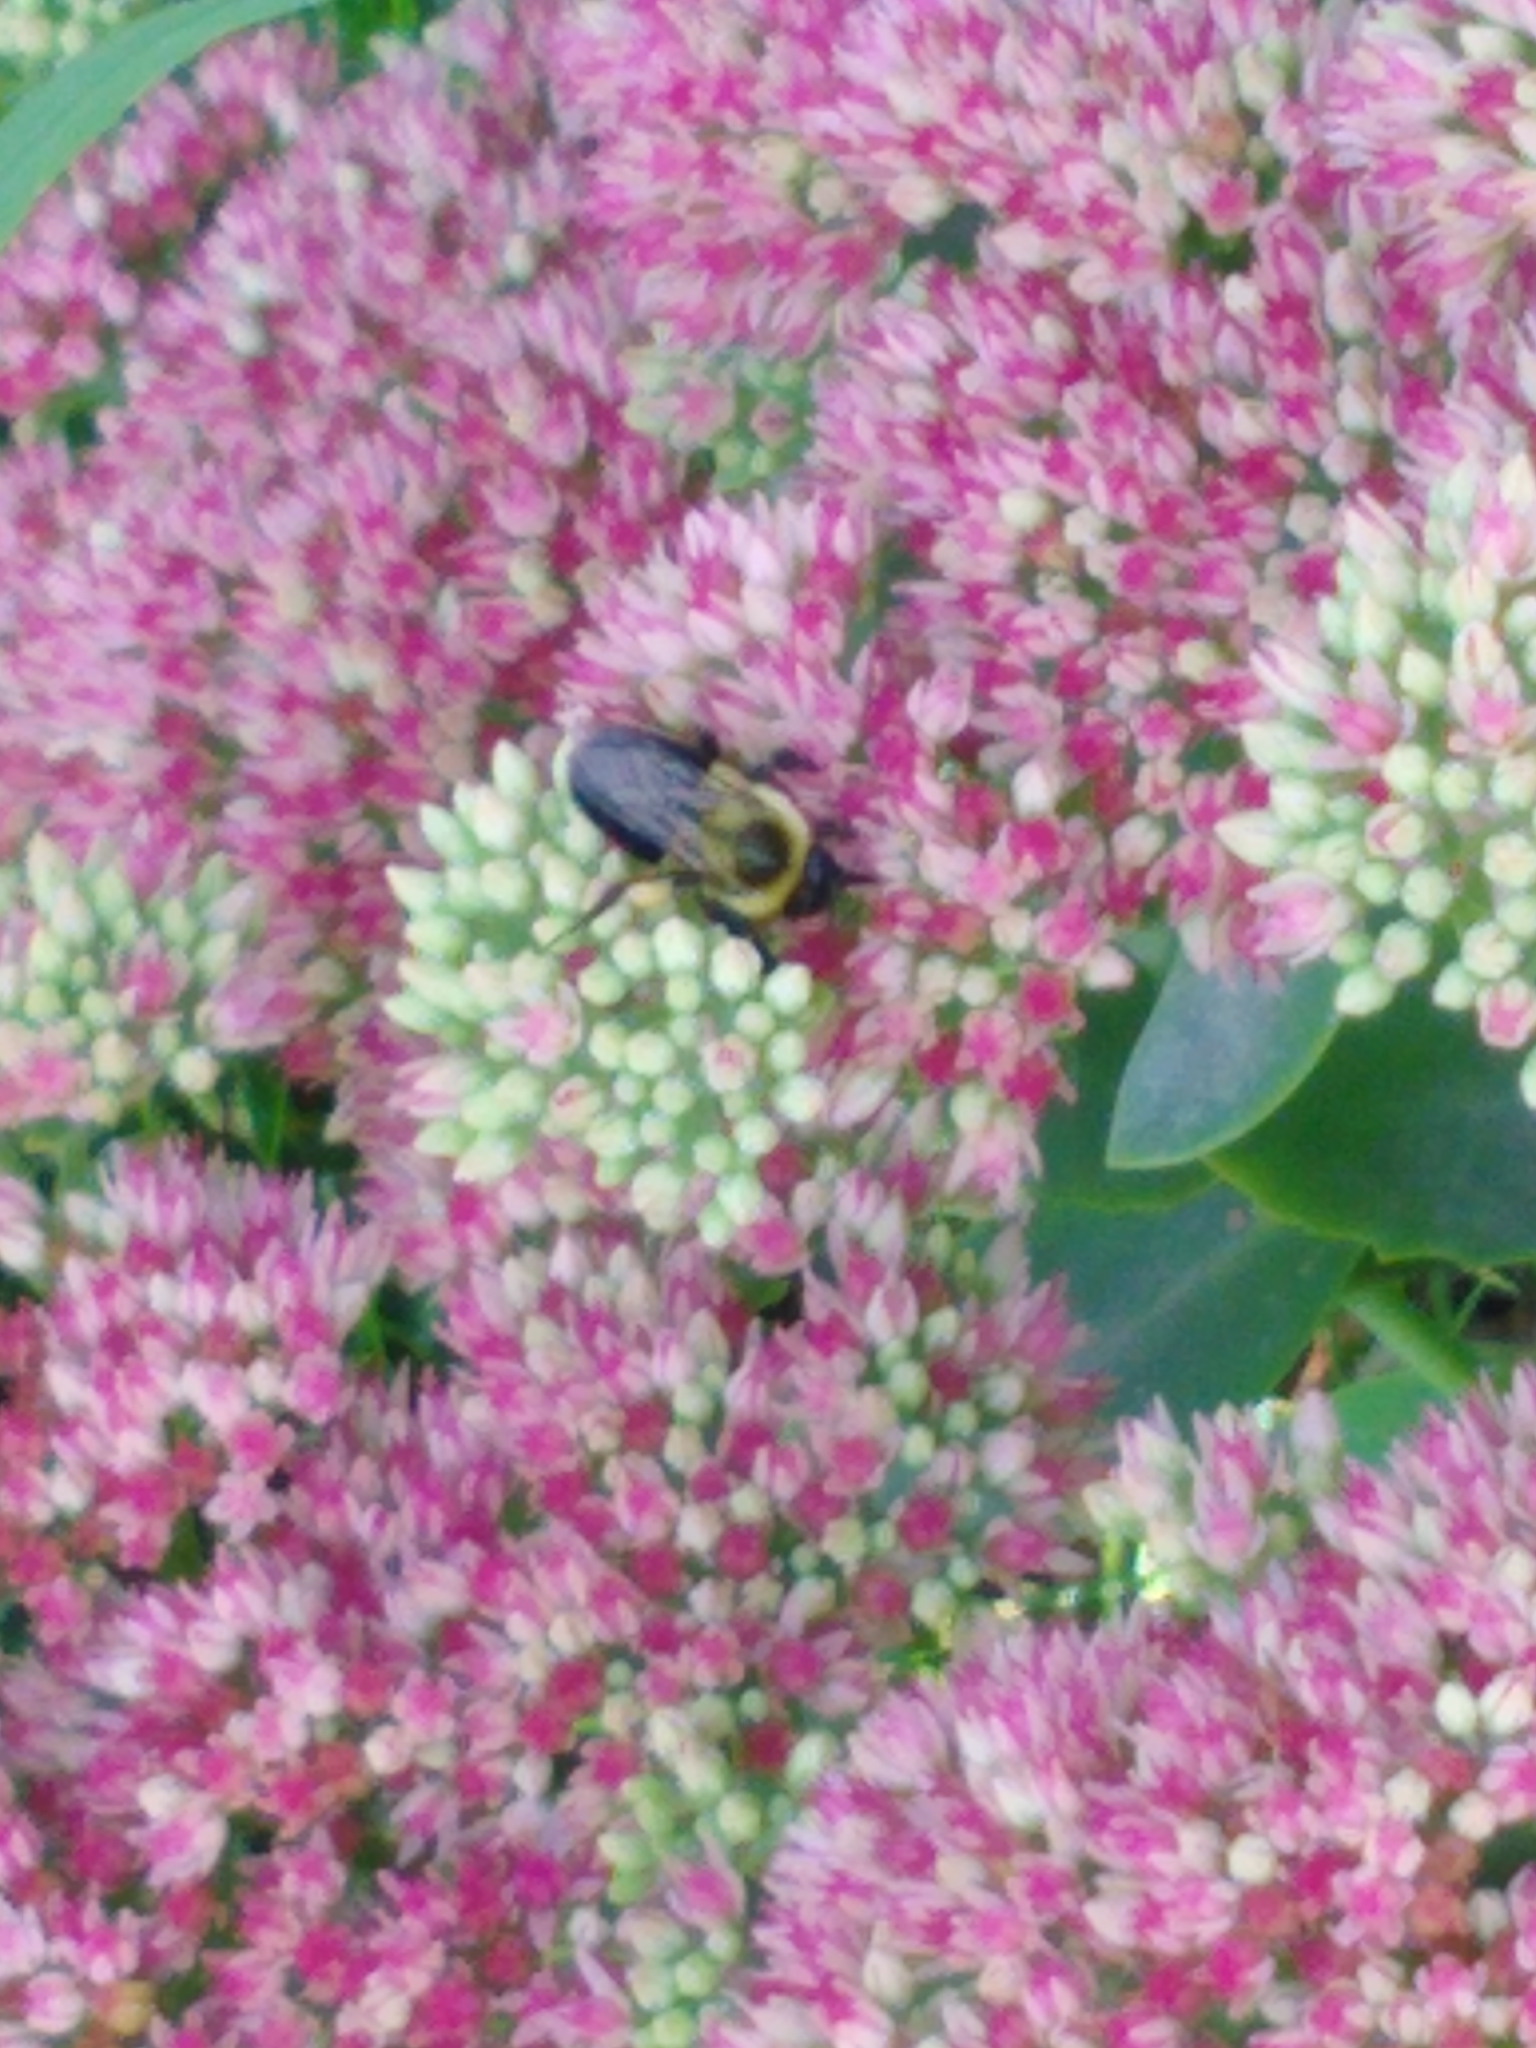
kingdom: Animalia
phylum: Arthropoda
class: Insecta
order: Hymenoptera
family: Apidae
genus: Bombus
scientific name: Bombus impatiens
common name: Common eastern bumble bee
